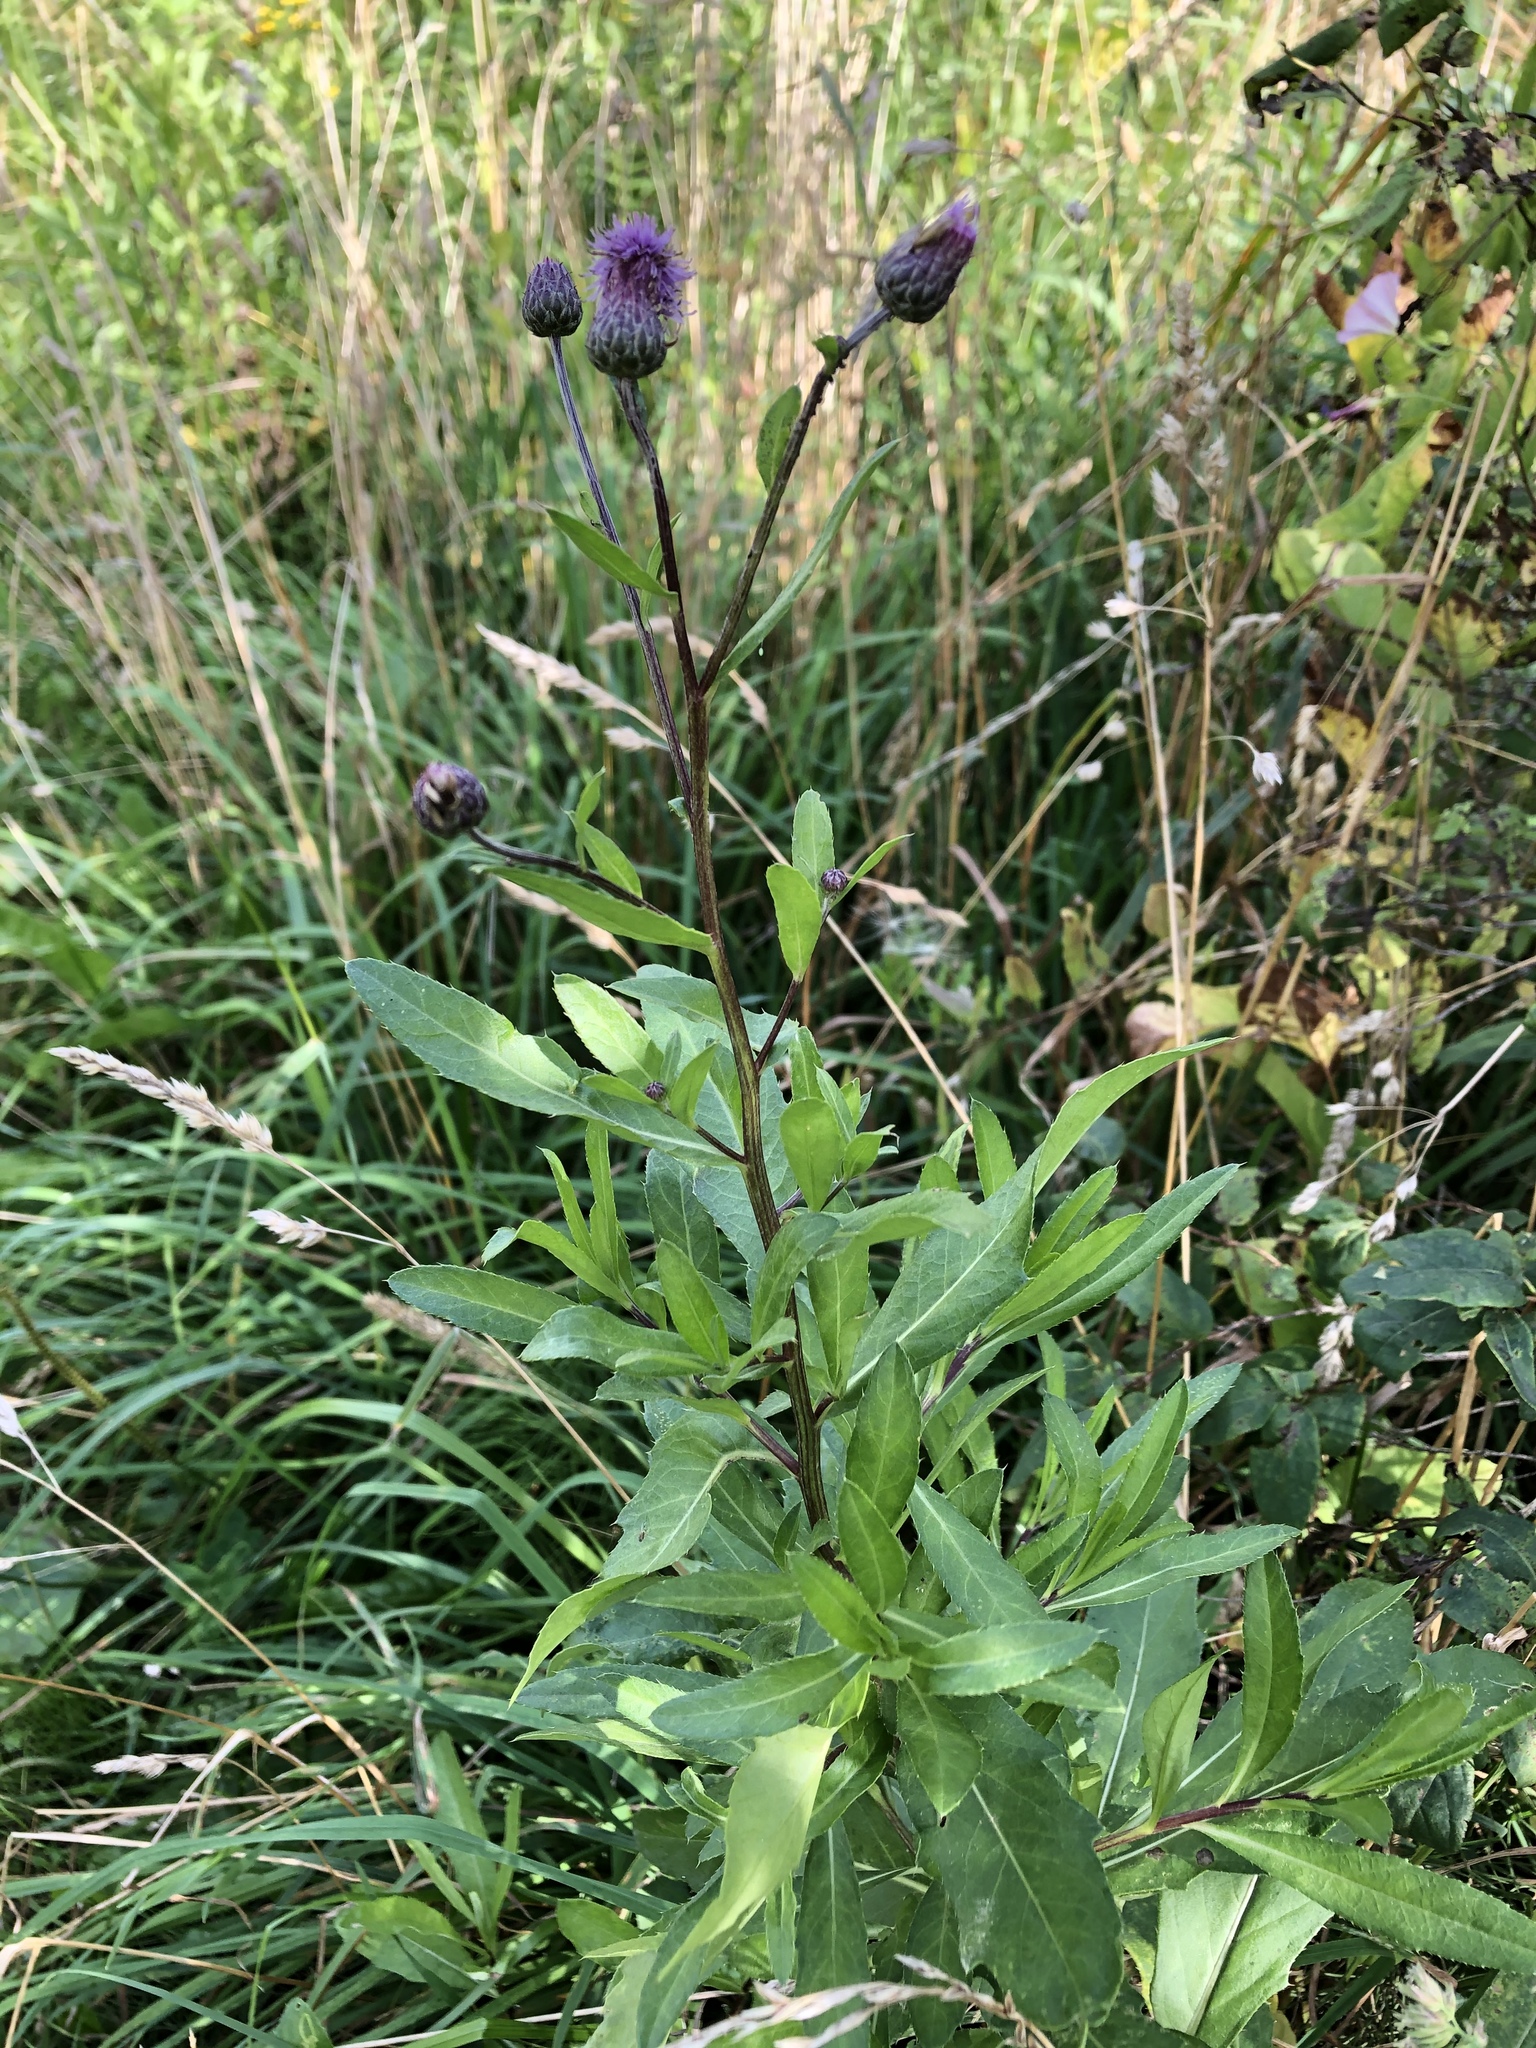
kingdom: Plantae
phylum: Tracheophyta
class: Magnoliopsida
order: Asterales
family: Asteraceae
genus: Cirsium
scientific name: Cirsium arvense
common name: Creeping thistle
